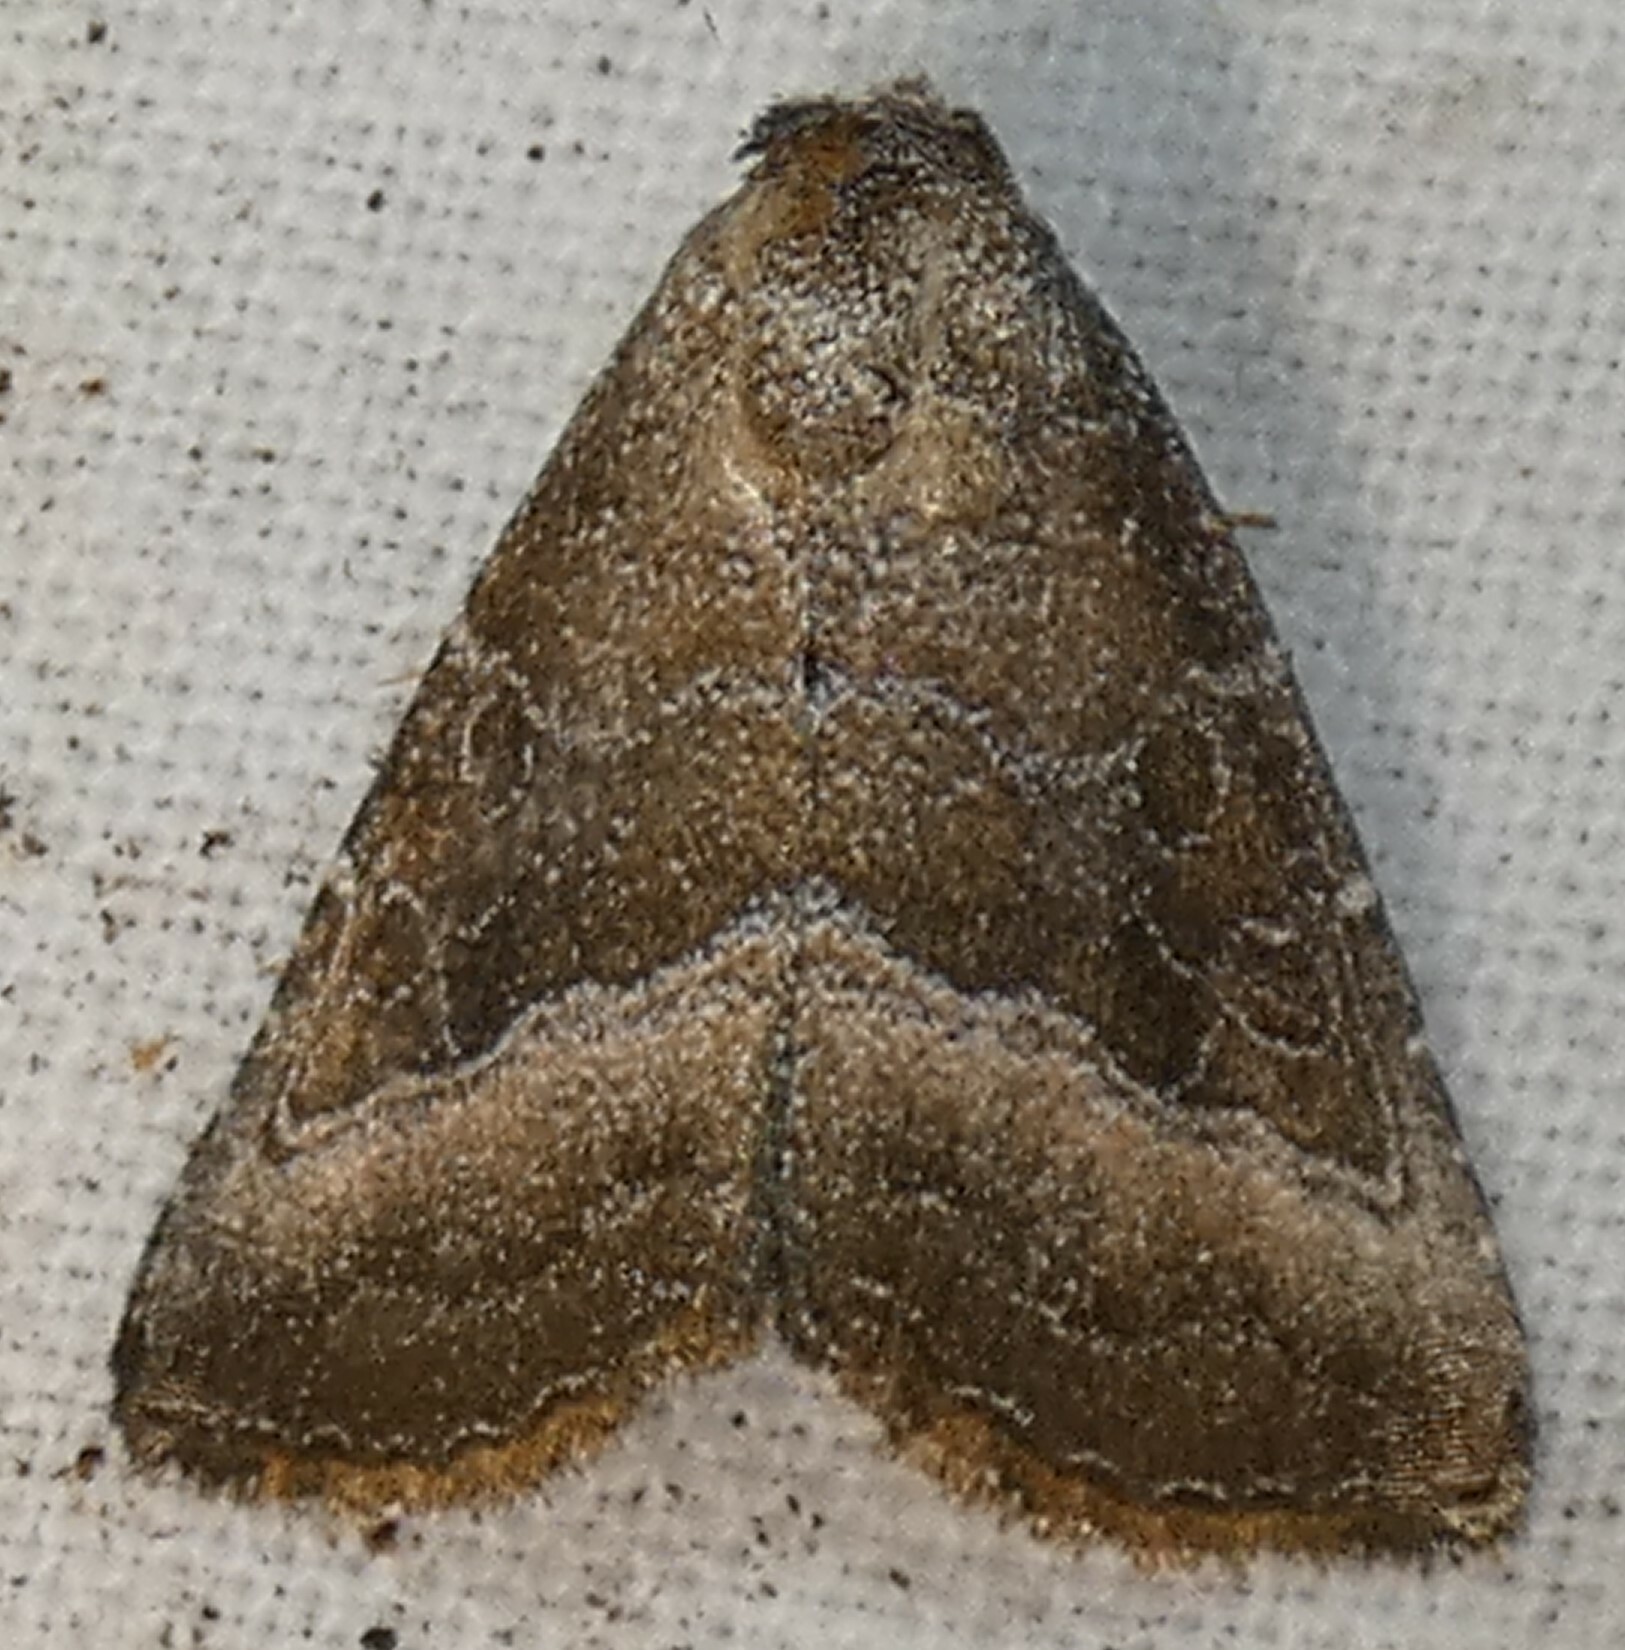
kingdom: Animalia
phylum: Arthropoda
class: Insecta
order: Lepidoptera
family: Noctuidae
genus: Ogdoconta
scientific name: Ogdoconta cinereola
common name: Common pinkband
